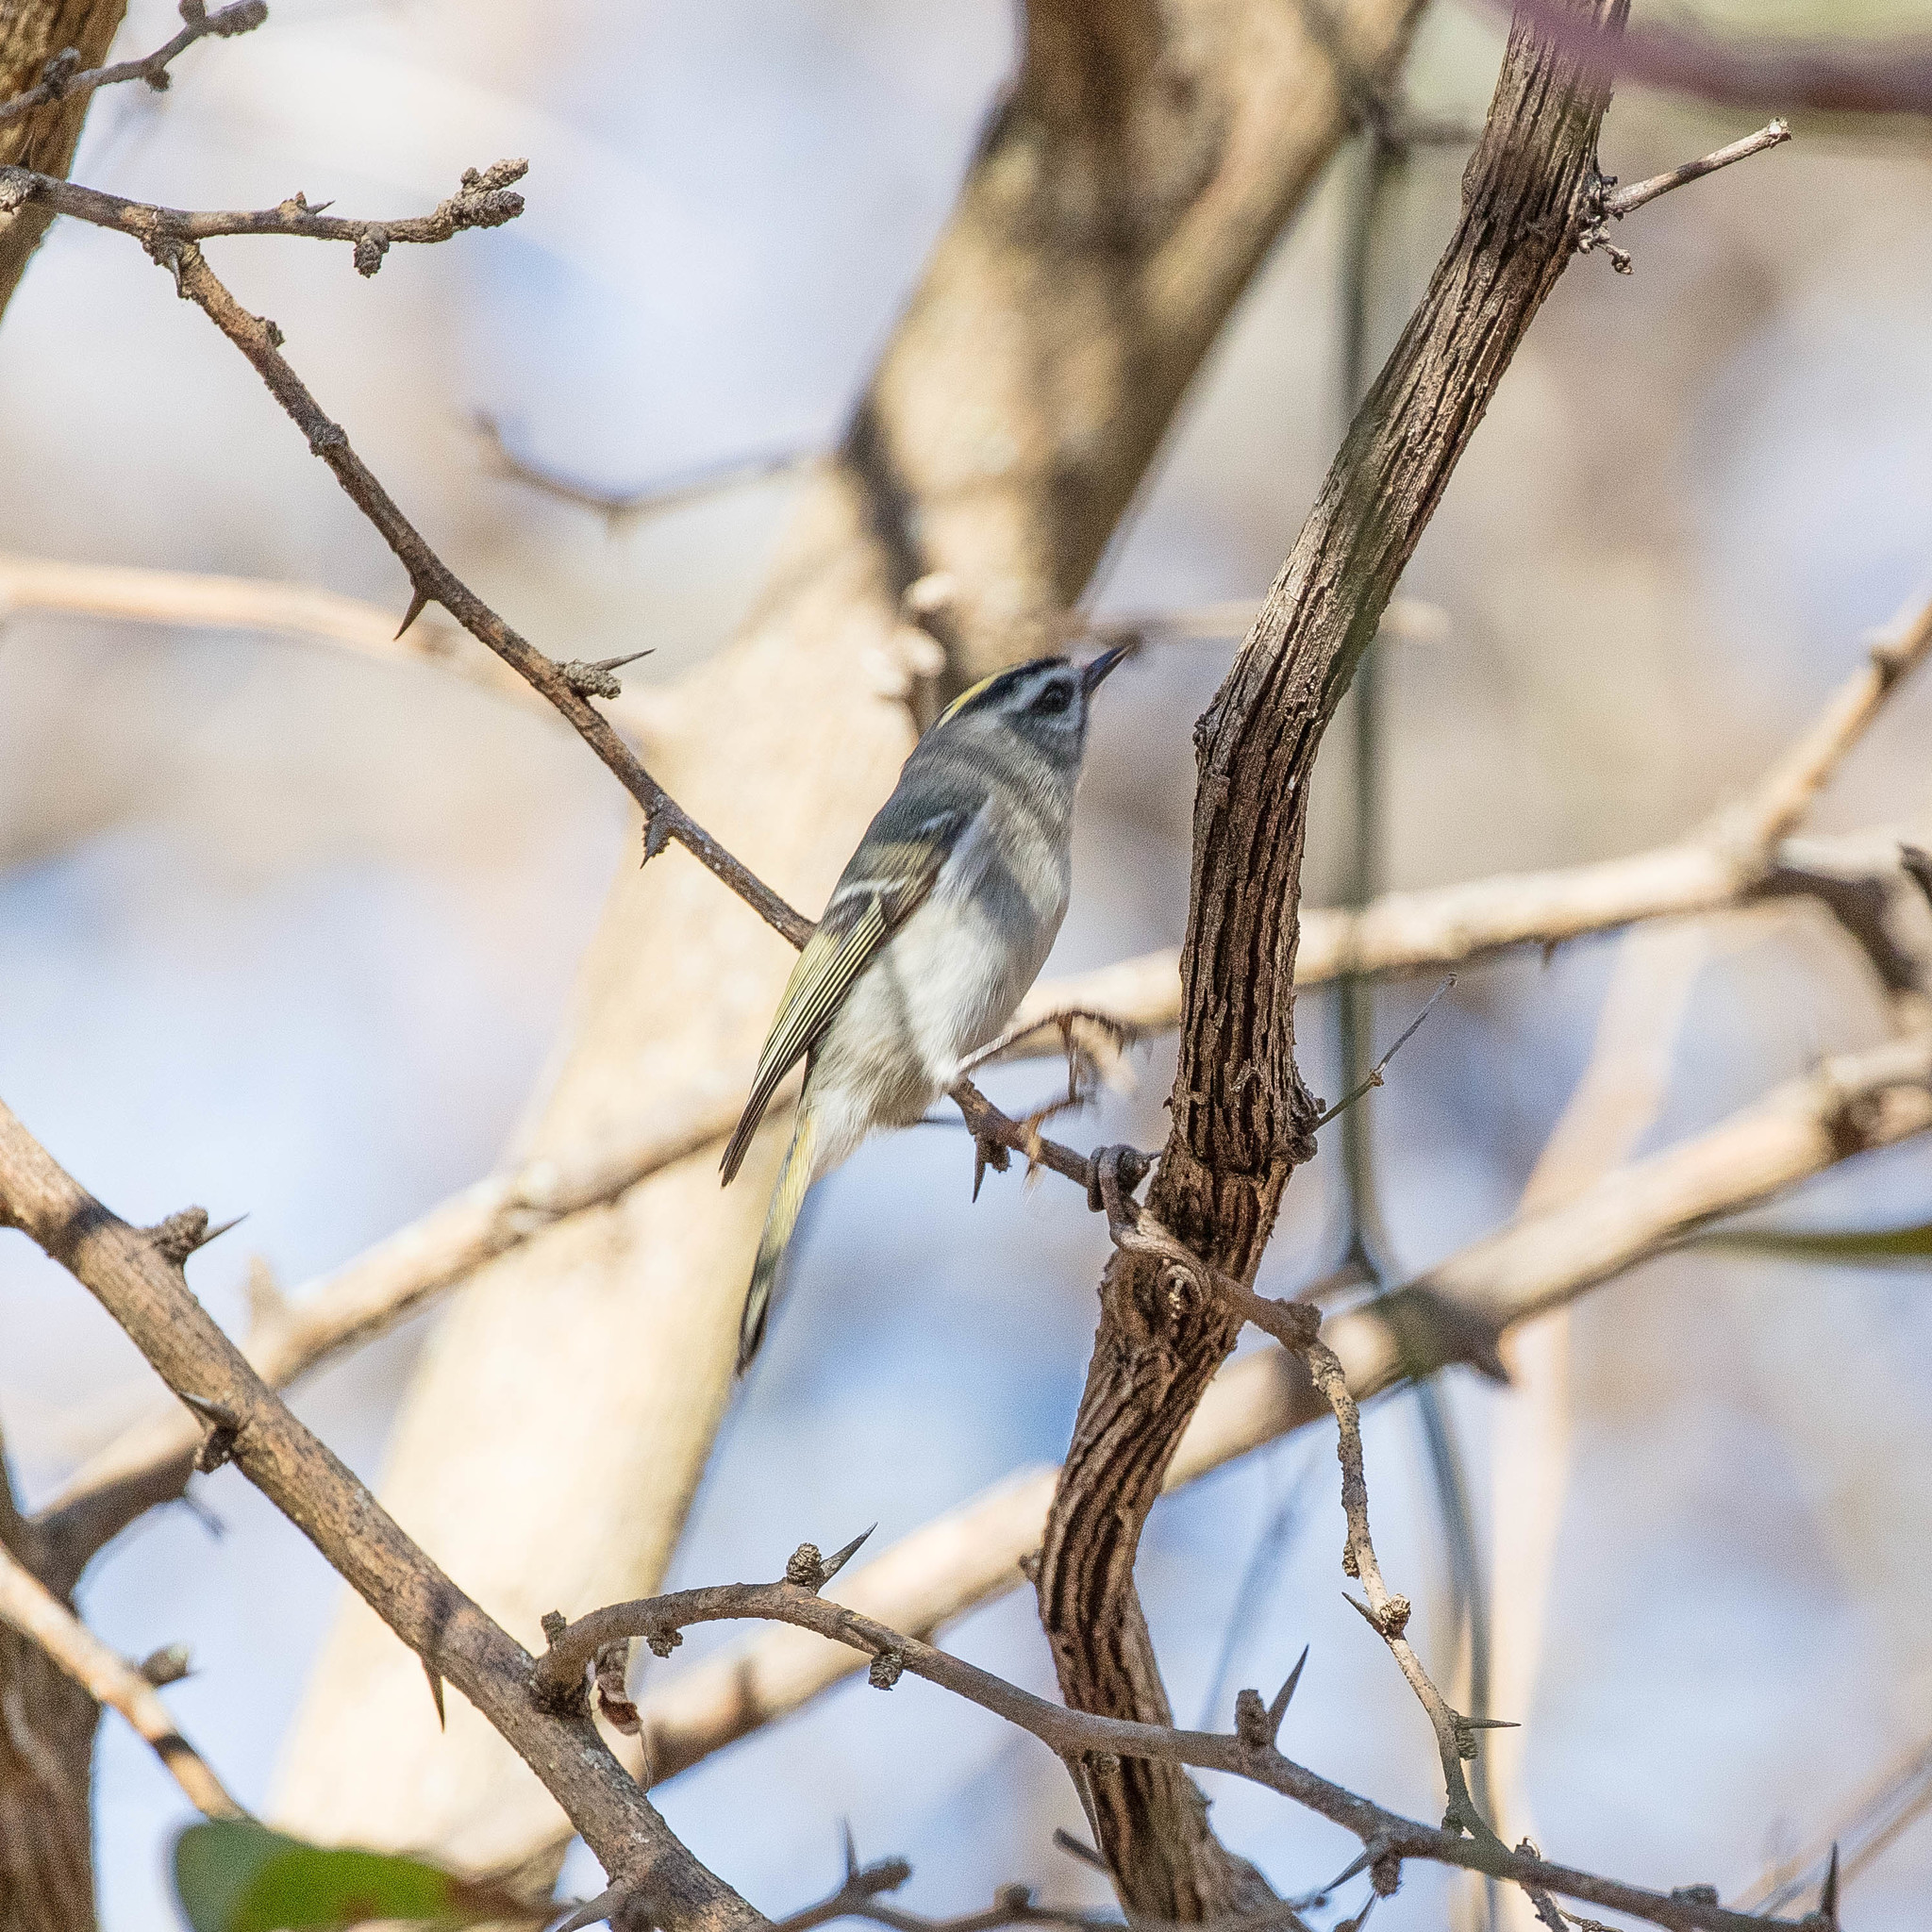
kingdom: Animalia
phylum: Chordata
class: Aves
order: Passeriformes
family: Regulidae
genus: Regulus
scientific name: Regulus satrapa
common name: Golden-crowned kinglet
